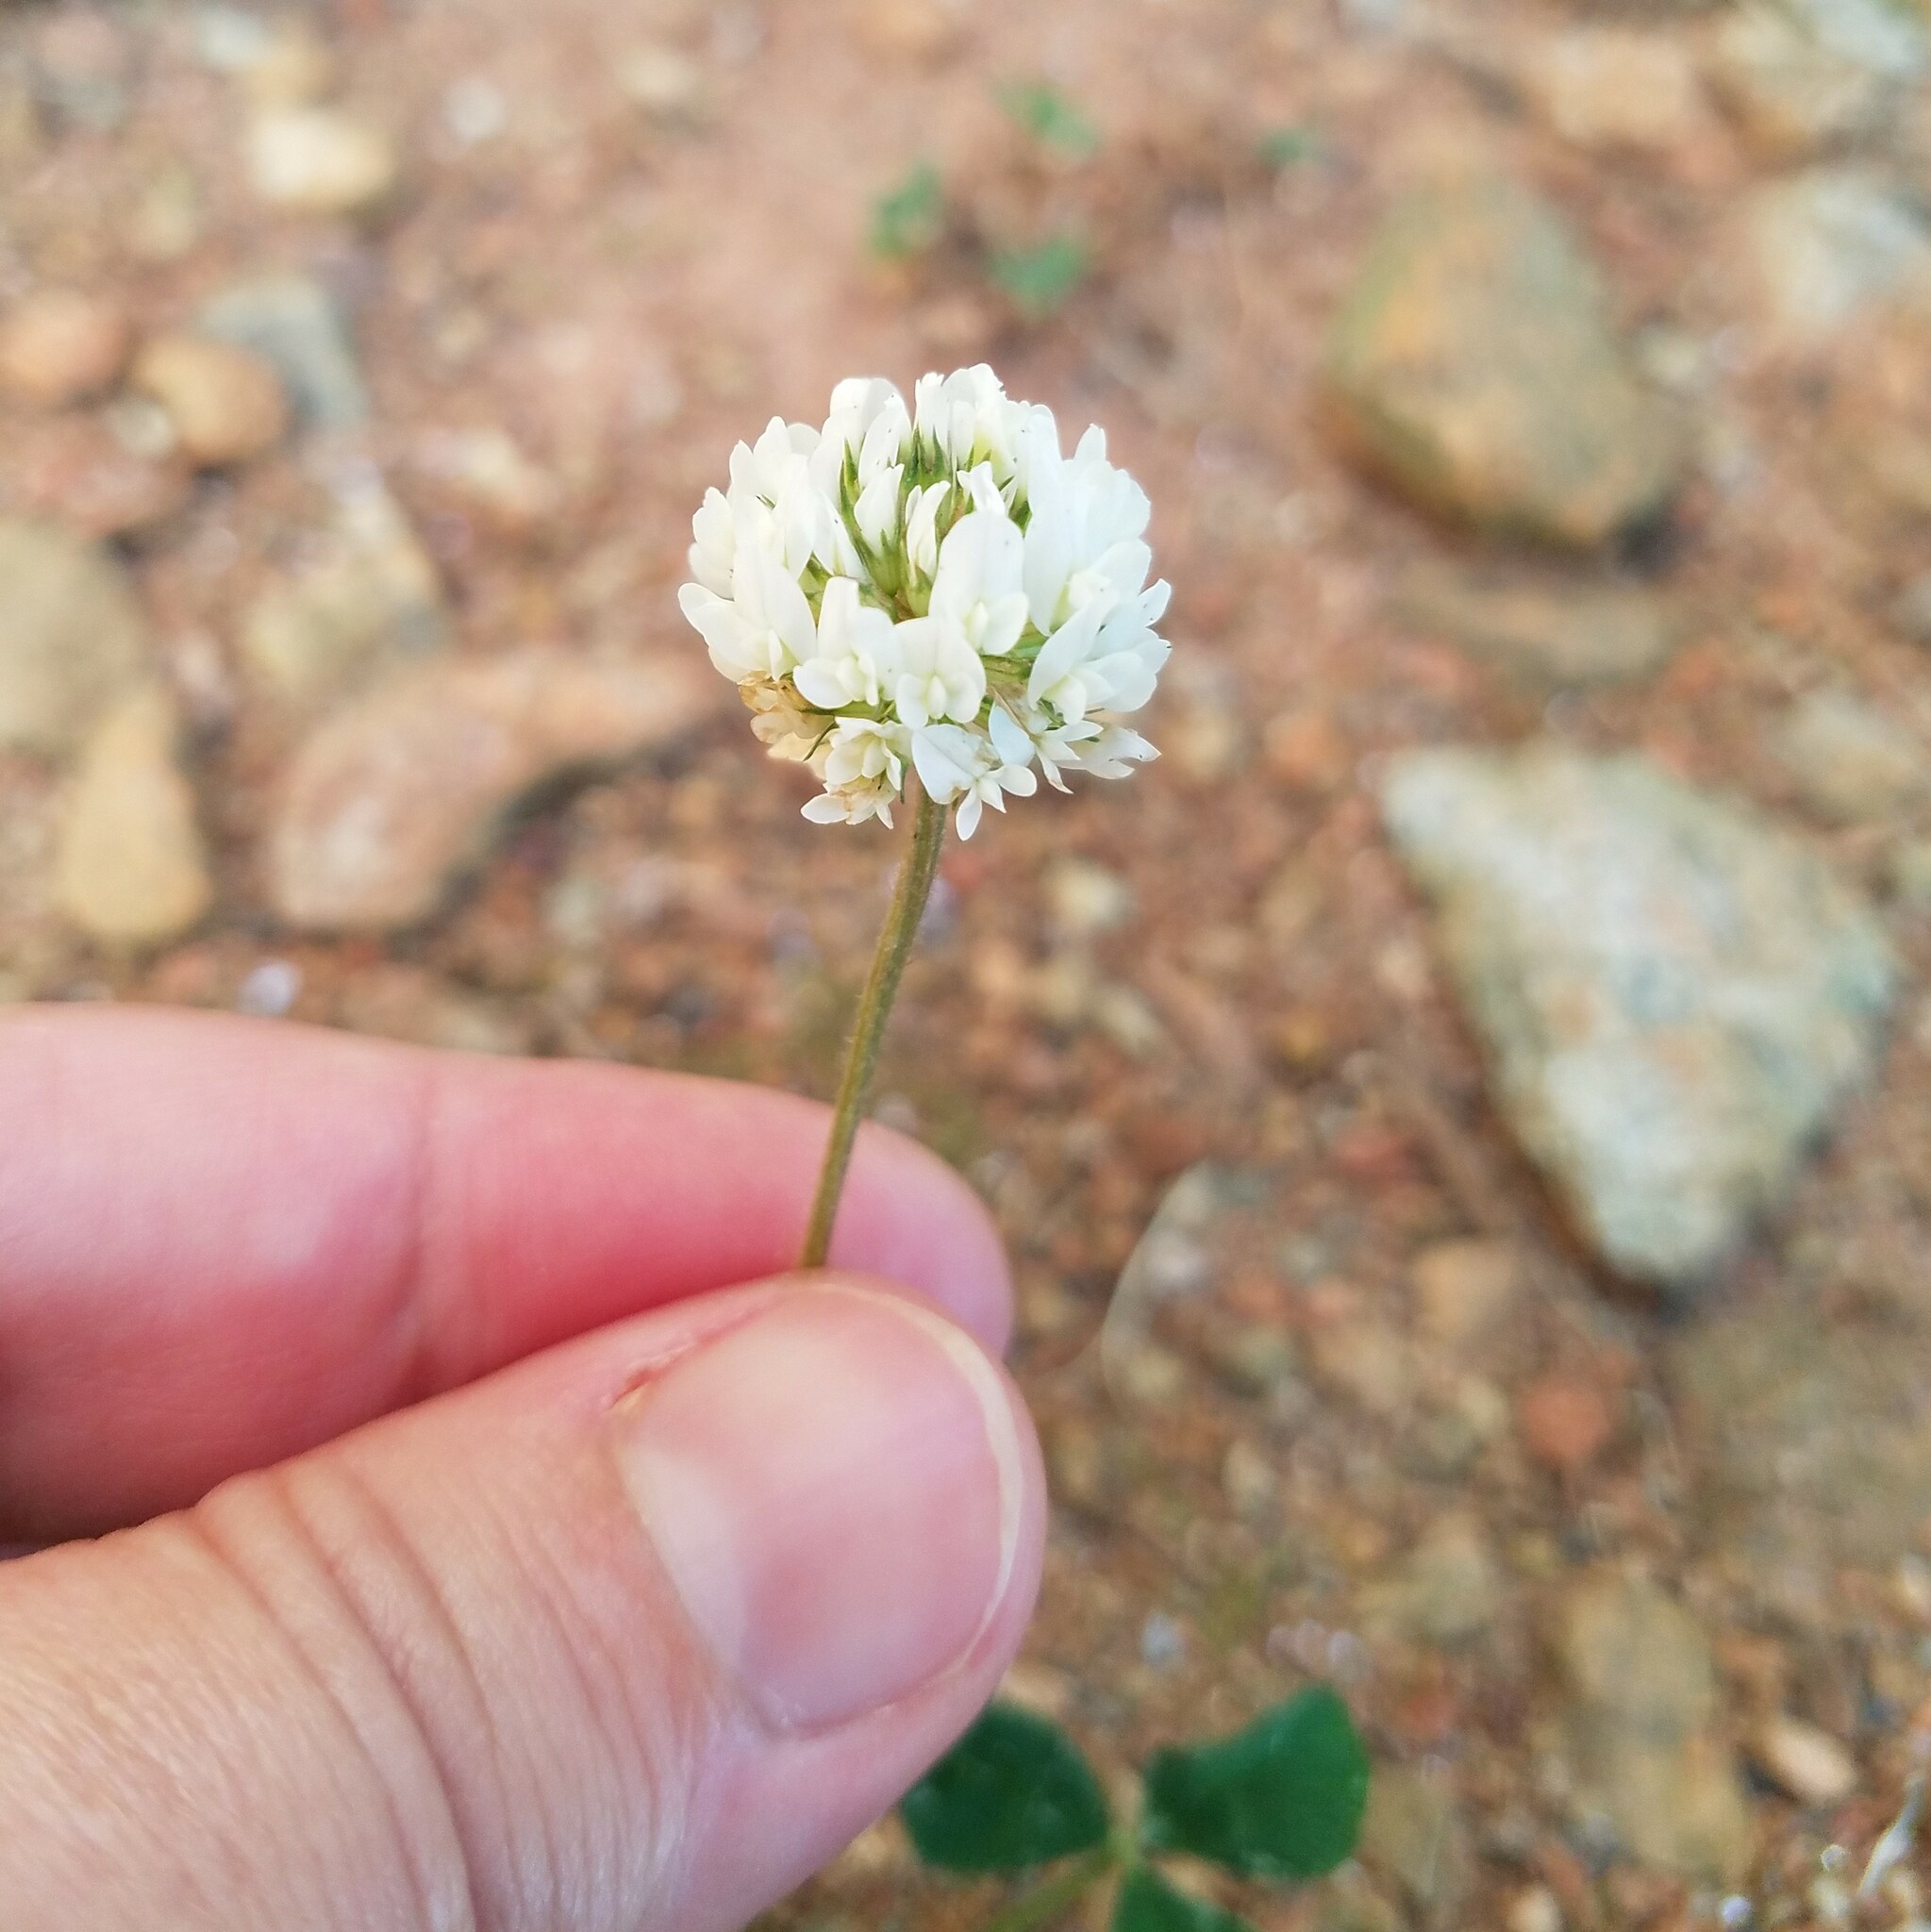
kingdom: Plantae
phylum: Tracheophyta
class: Magnoliopsida
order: Fabales
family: Fabaceae
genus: Trifolium
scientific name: Trifolium repens
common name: White clover
